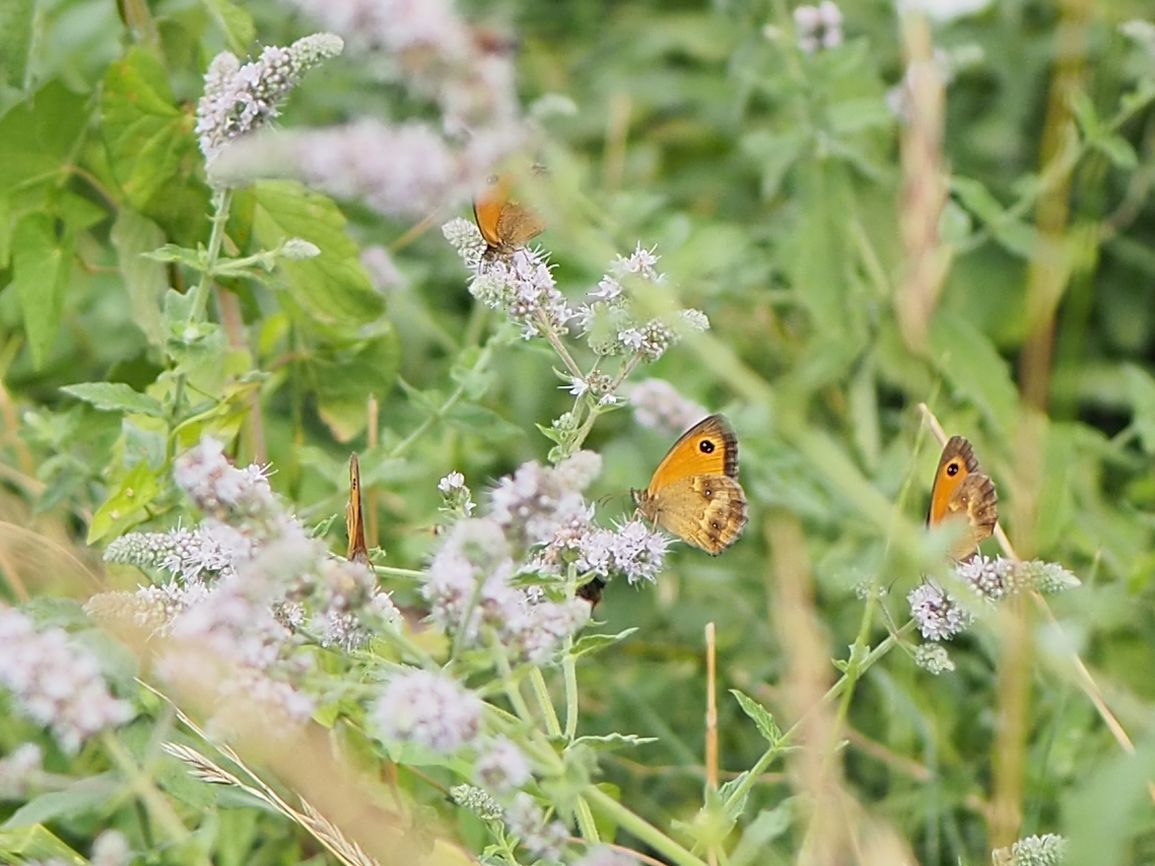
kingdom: Animalia
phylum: Arthropoda
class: Insecta
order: Lepidoptera
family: Nymphalidae
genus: Pyronia
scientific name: Pyronia tithonus
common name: Gatekeeper
